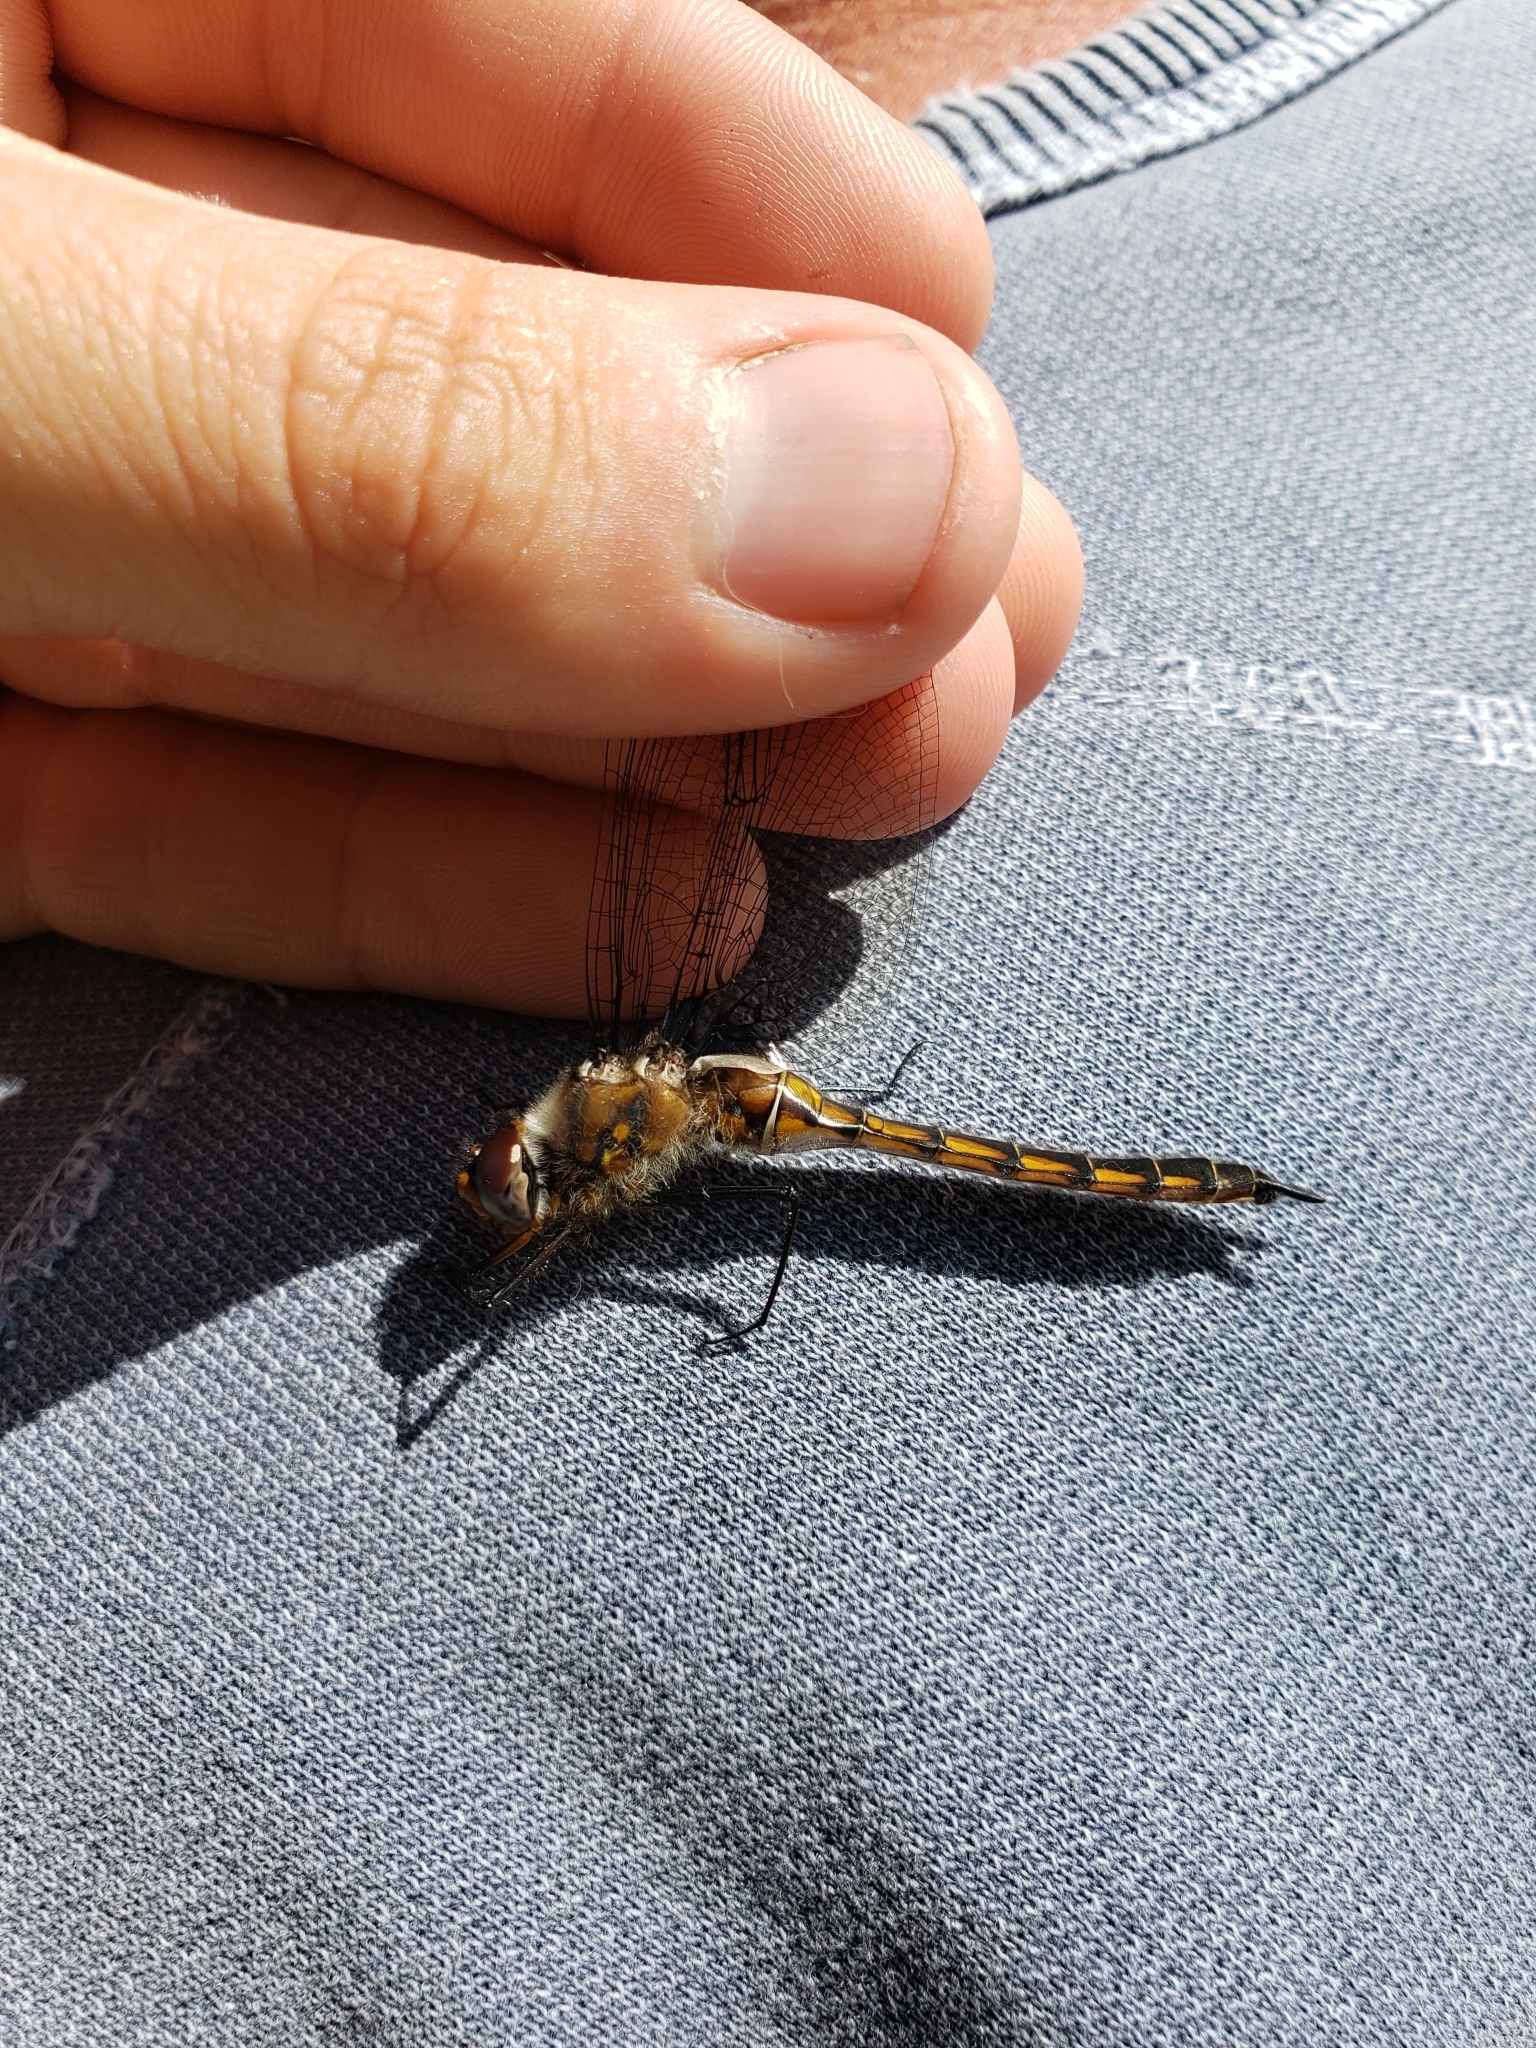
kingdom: Animalia
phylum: Arthropoda
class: Insecta
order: Odonata
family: Corduliidae
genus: Epitheca
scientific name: Epitheca cynosura
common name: Common baskettail
